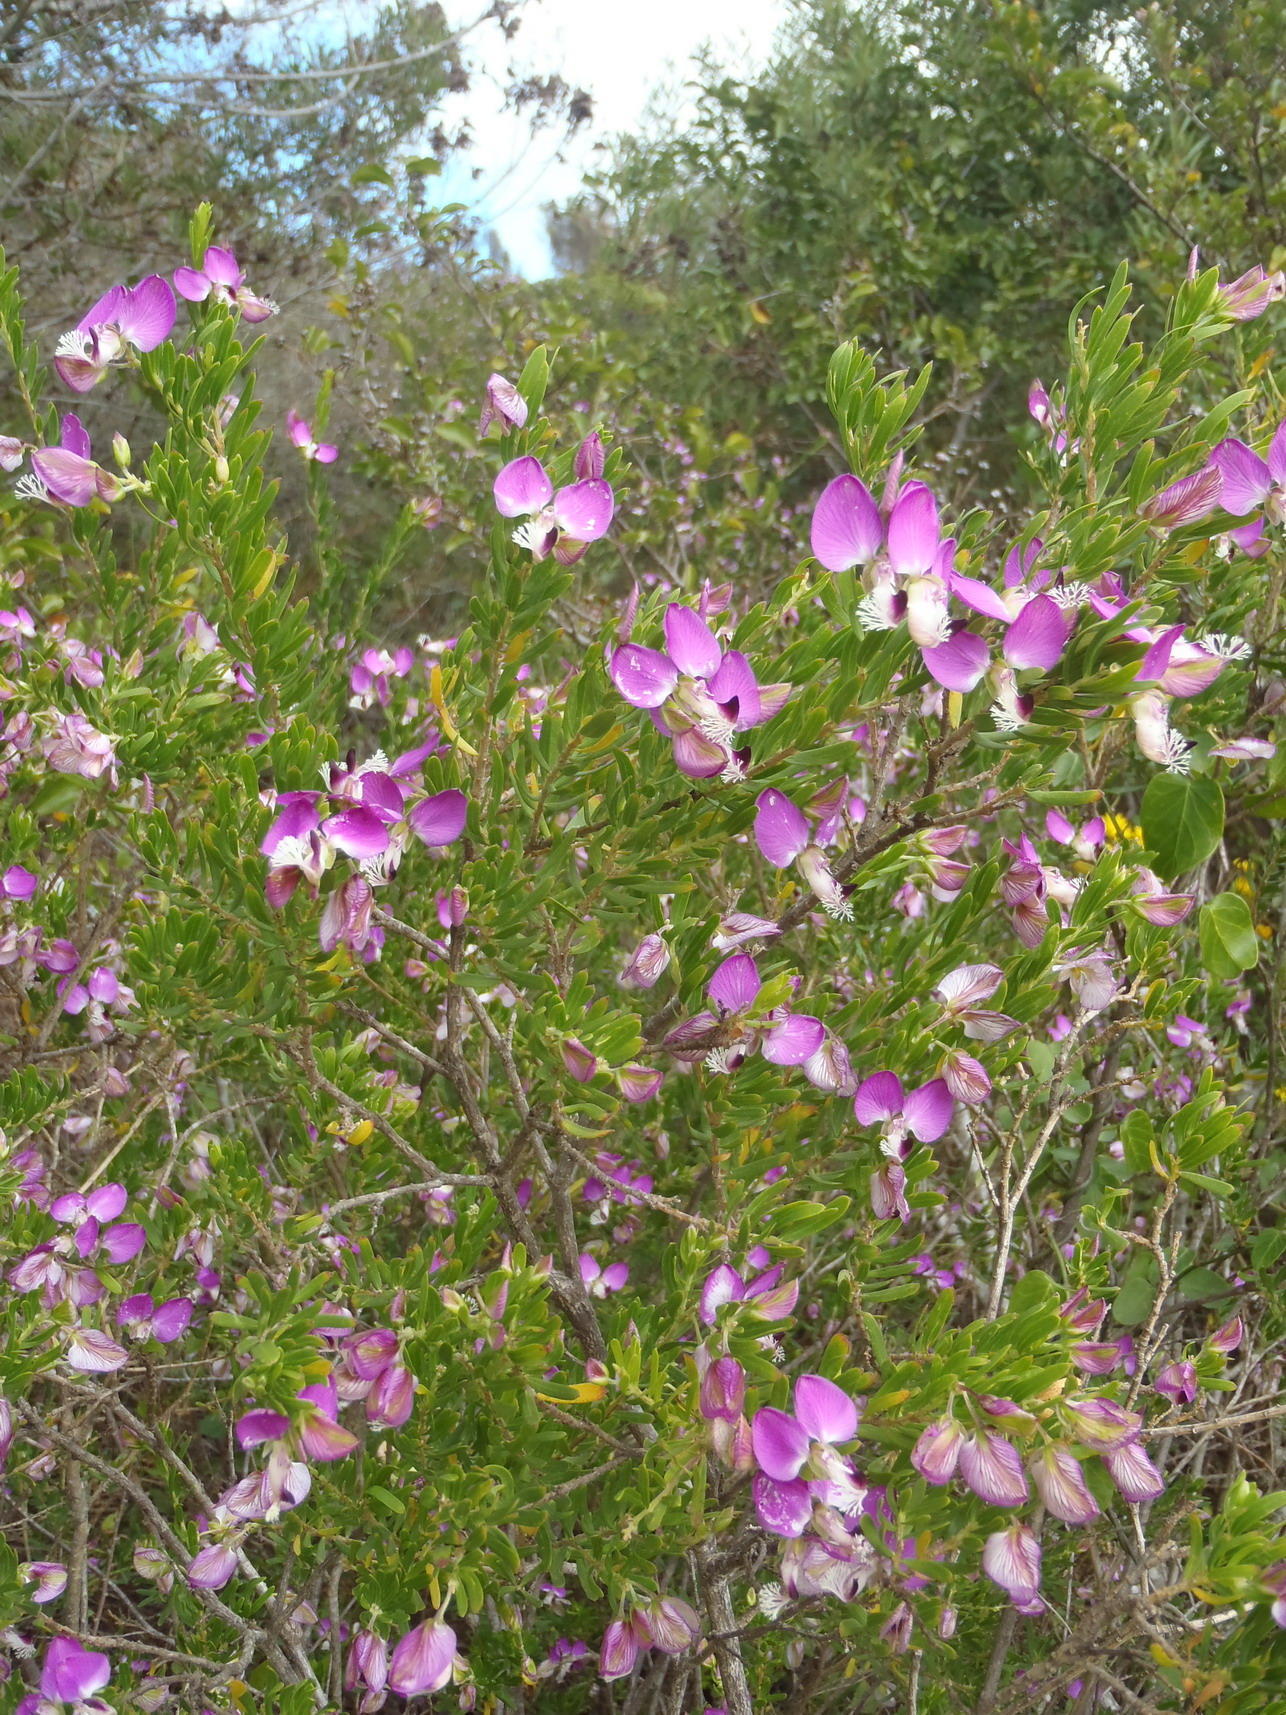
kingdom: Plantae
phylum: Tracheophyta
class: Magnoliopsida
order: Fabales
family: Polygalaceae
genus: Polygala
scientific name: Polygala myrtifolia
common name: Myrtle-leaf milkwort
